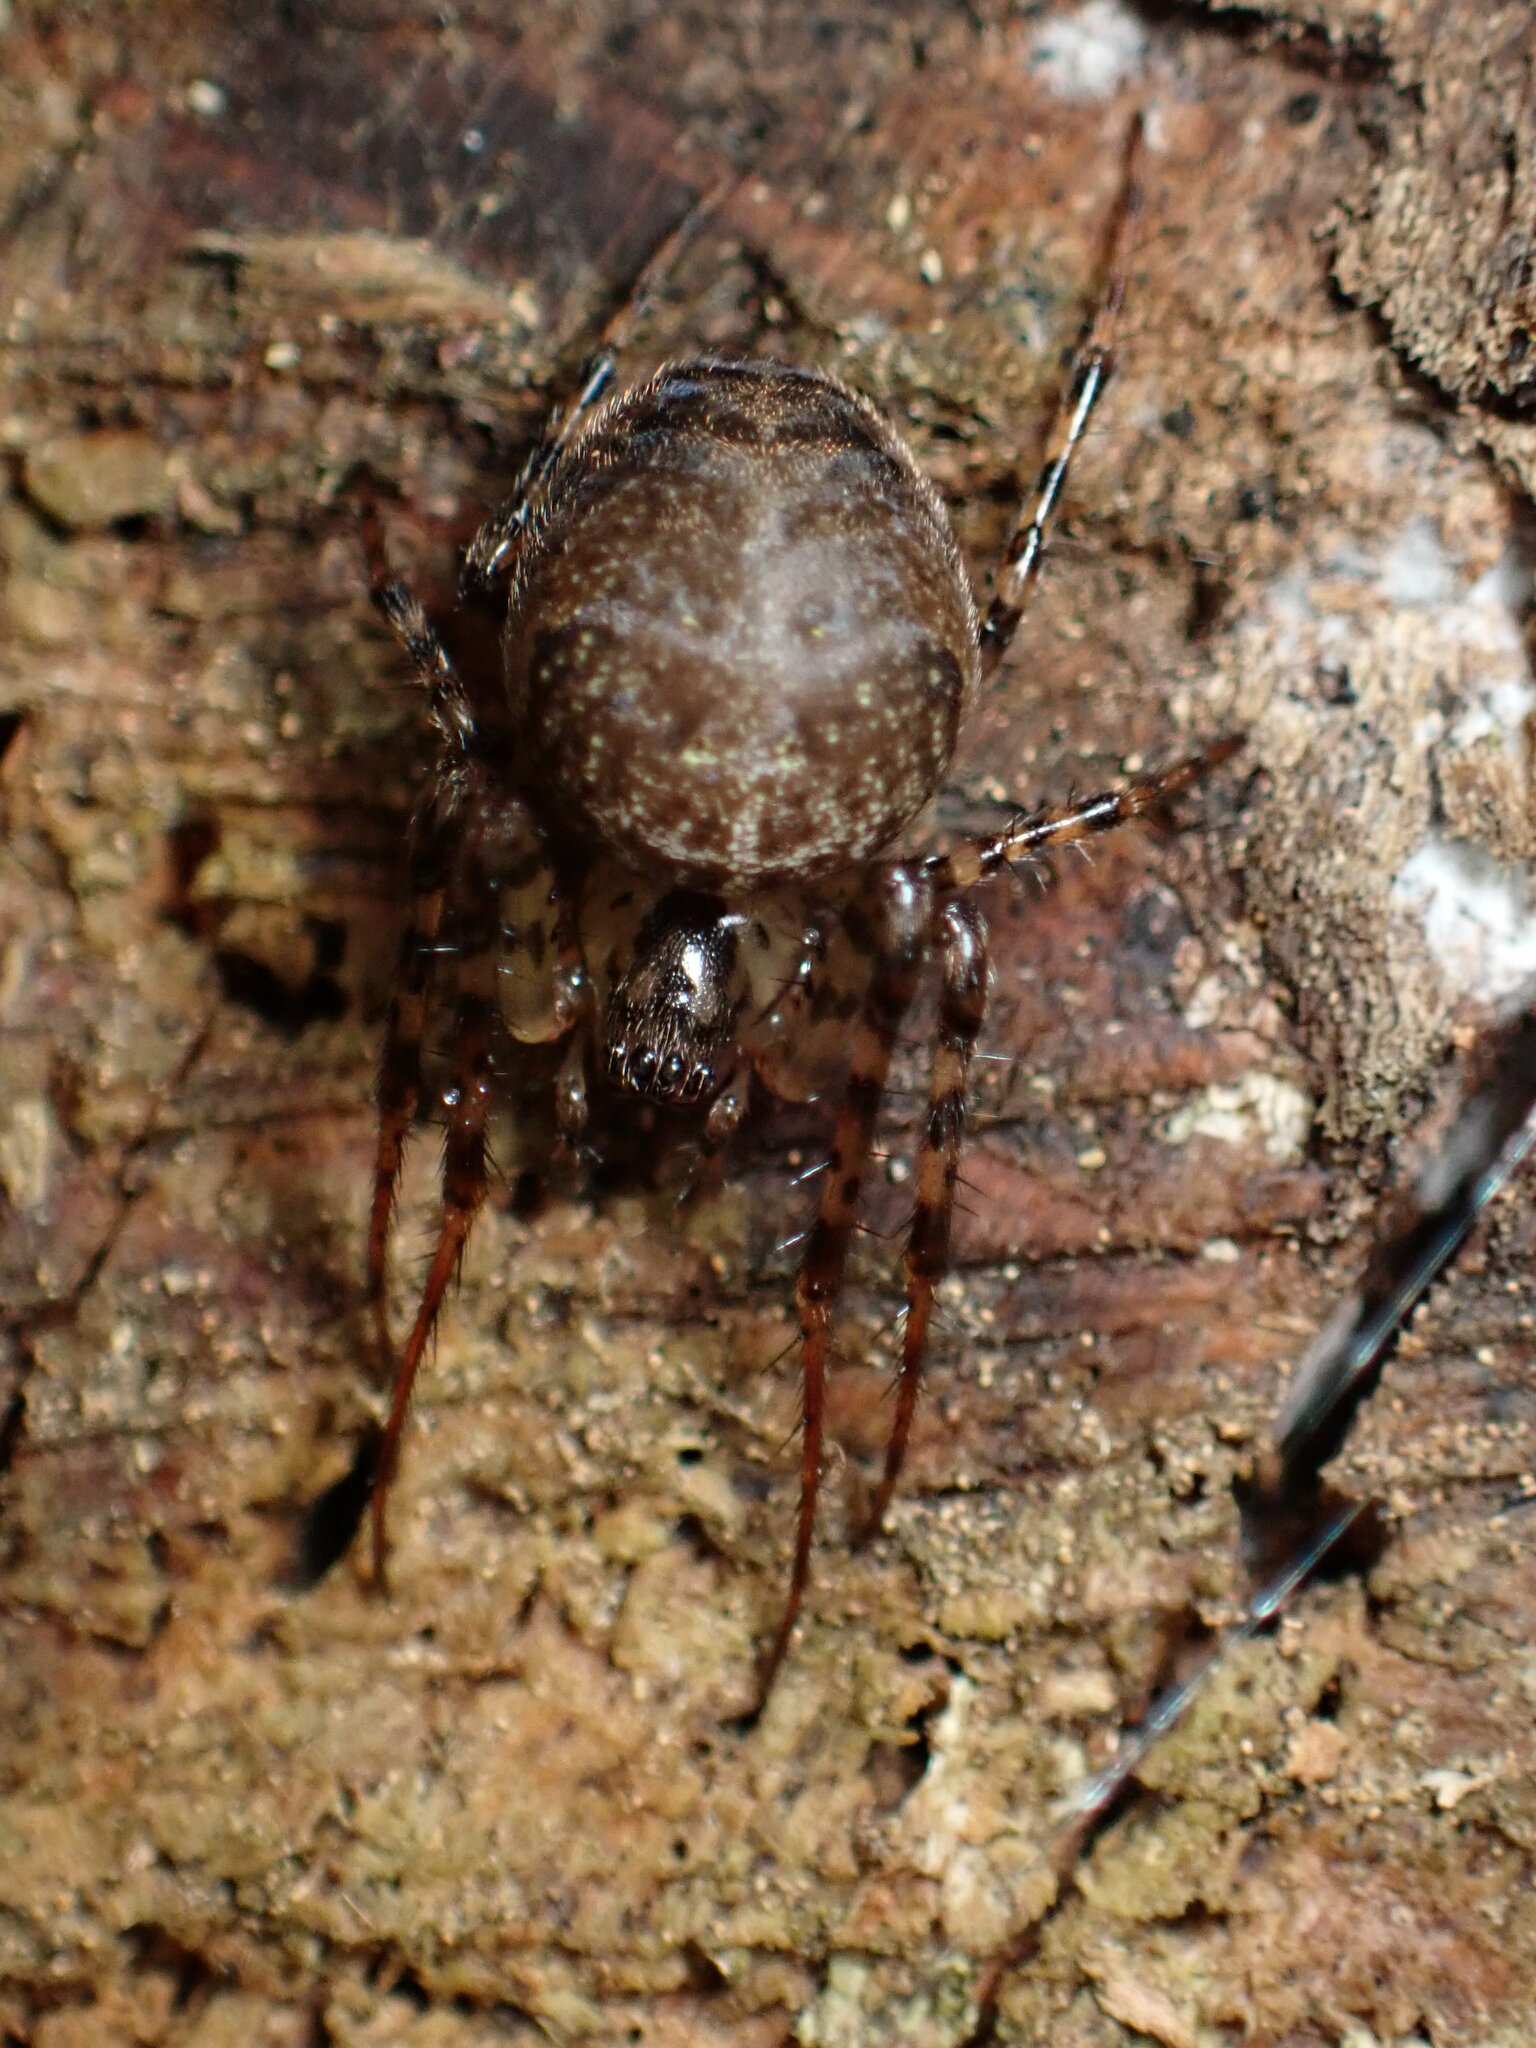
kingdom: Animalia
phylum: Arthropoda
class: Arachnida
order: Araneae
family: Tetragnathidae
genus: Metellina
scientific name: Metellina merianae
